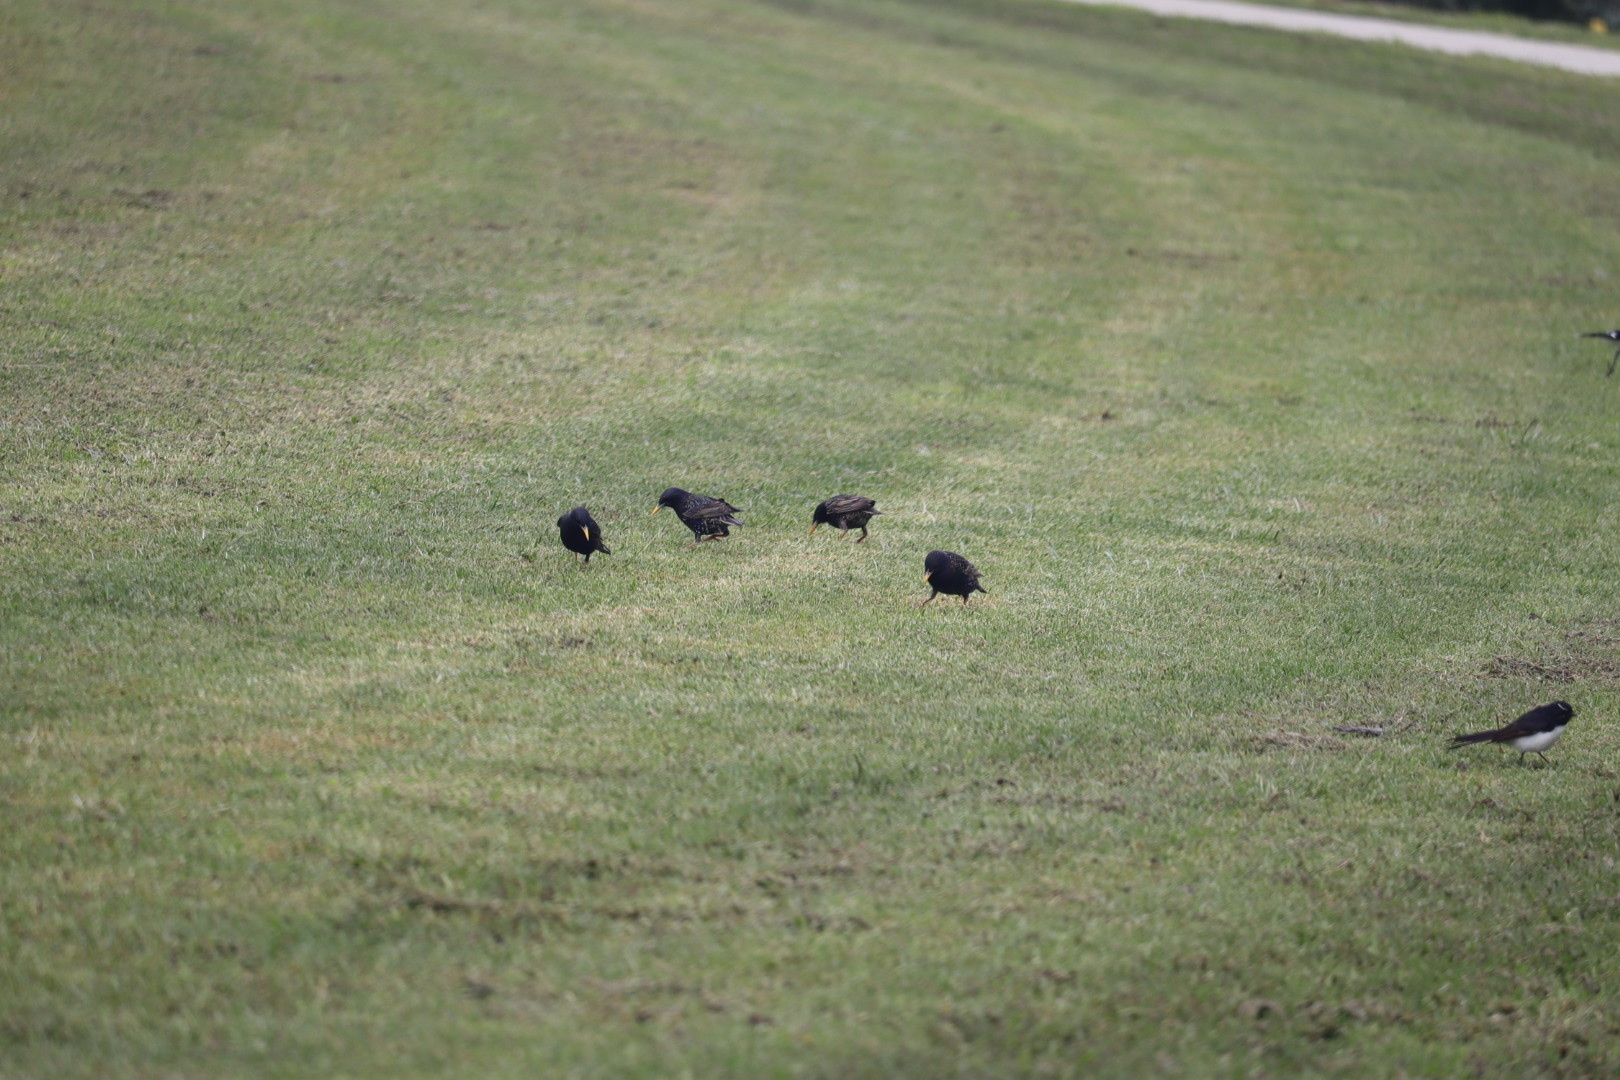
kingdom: Animalia
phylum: Chordata
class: Aves
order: Passeriformes
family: Sturnidae
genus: Sturnus
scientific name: Sturnus vulgaris
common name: Common starling
